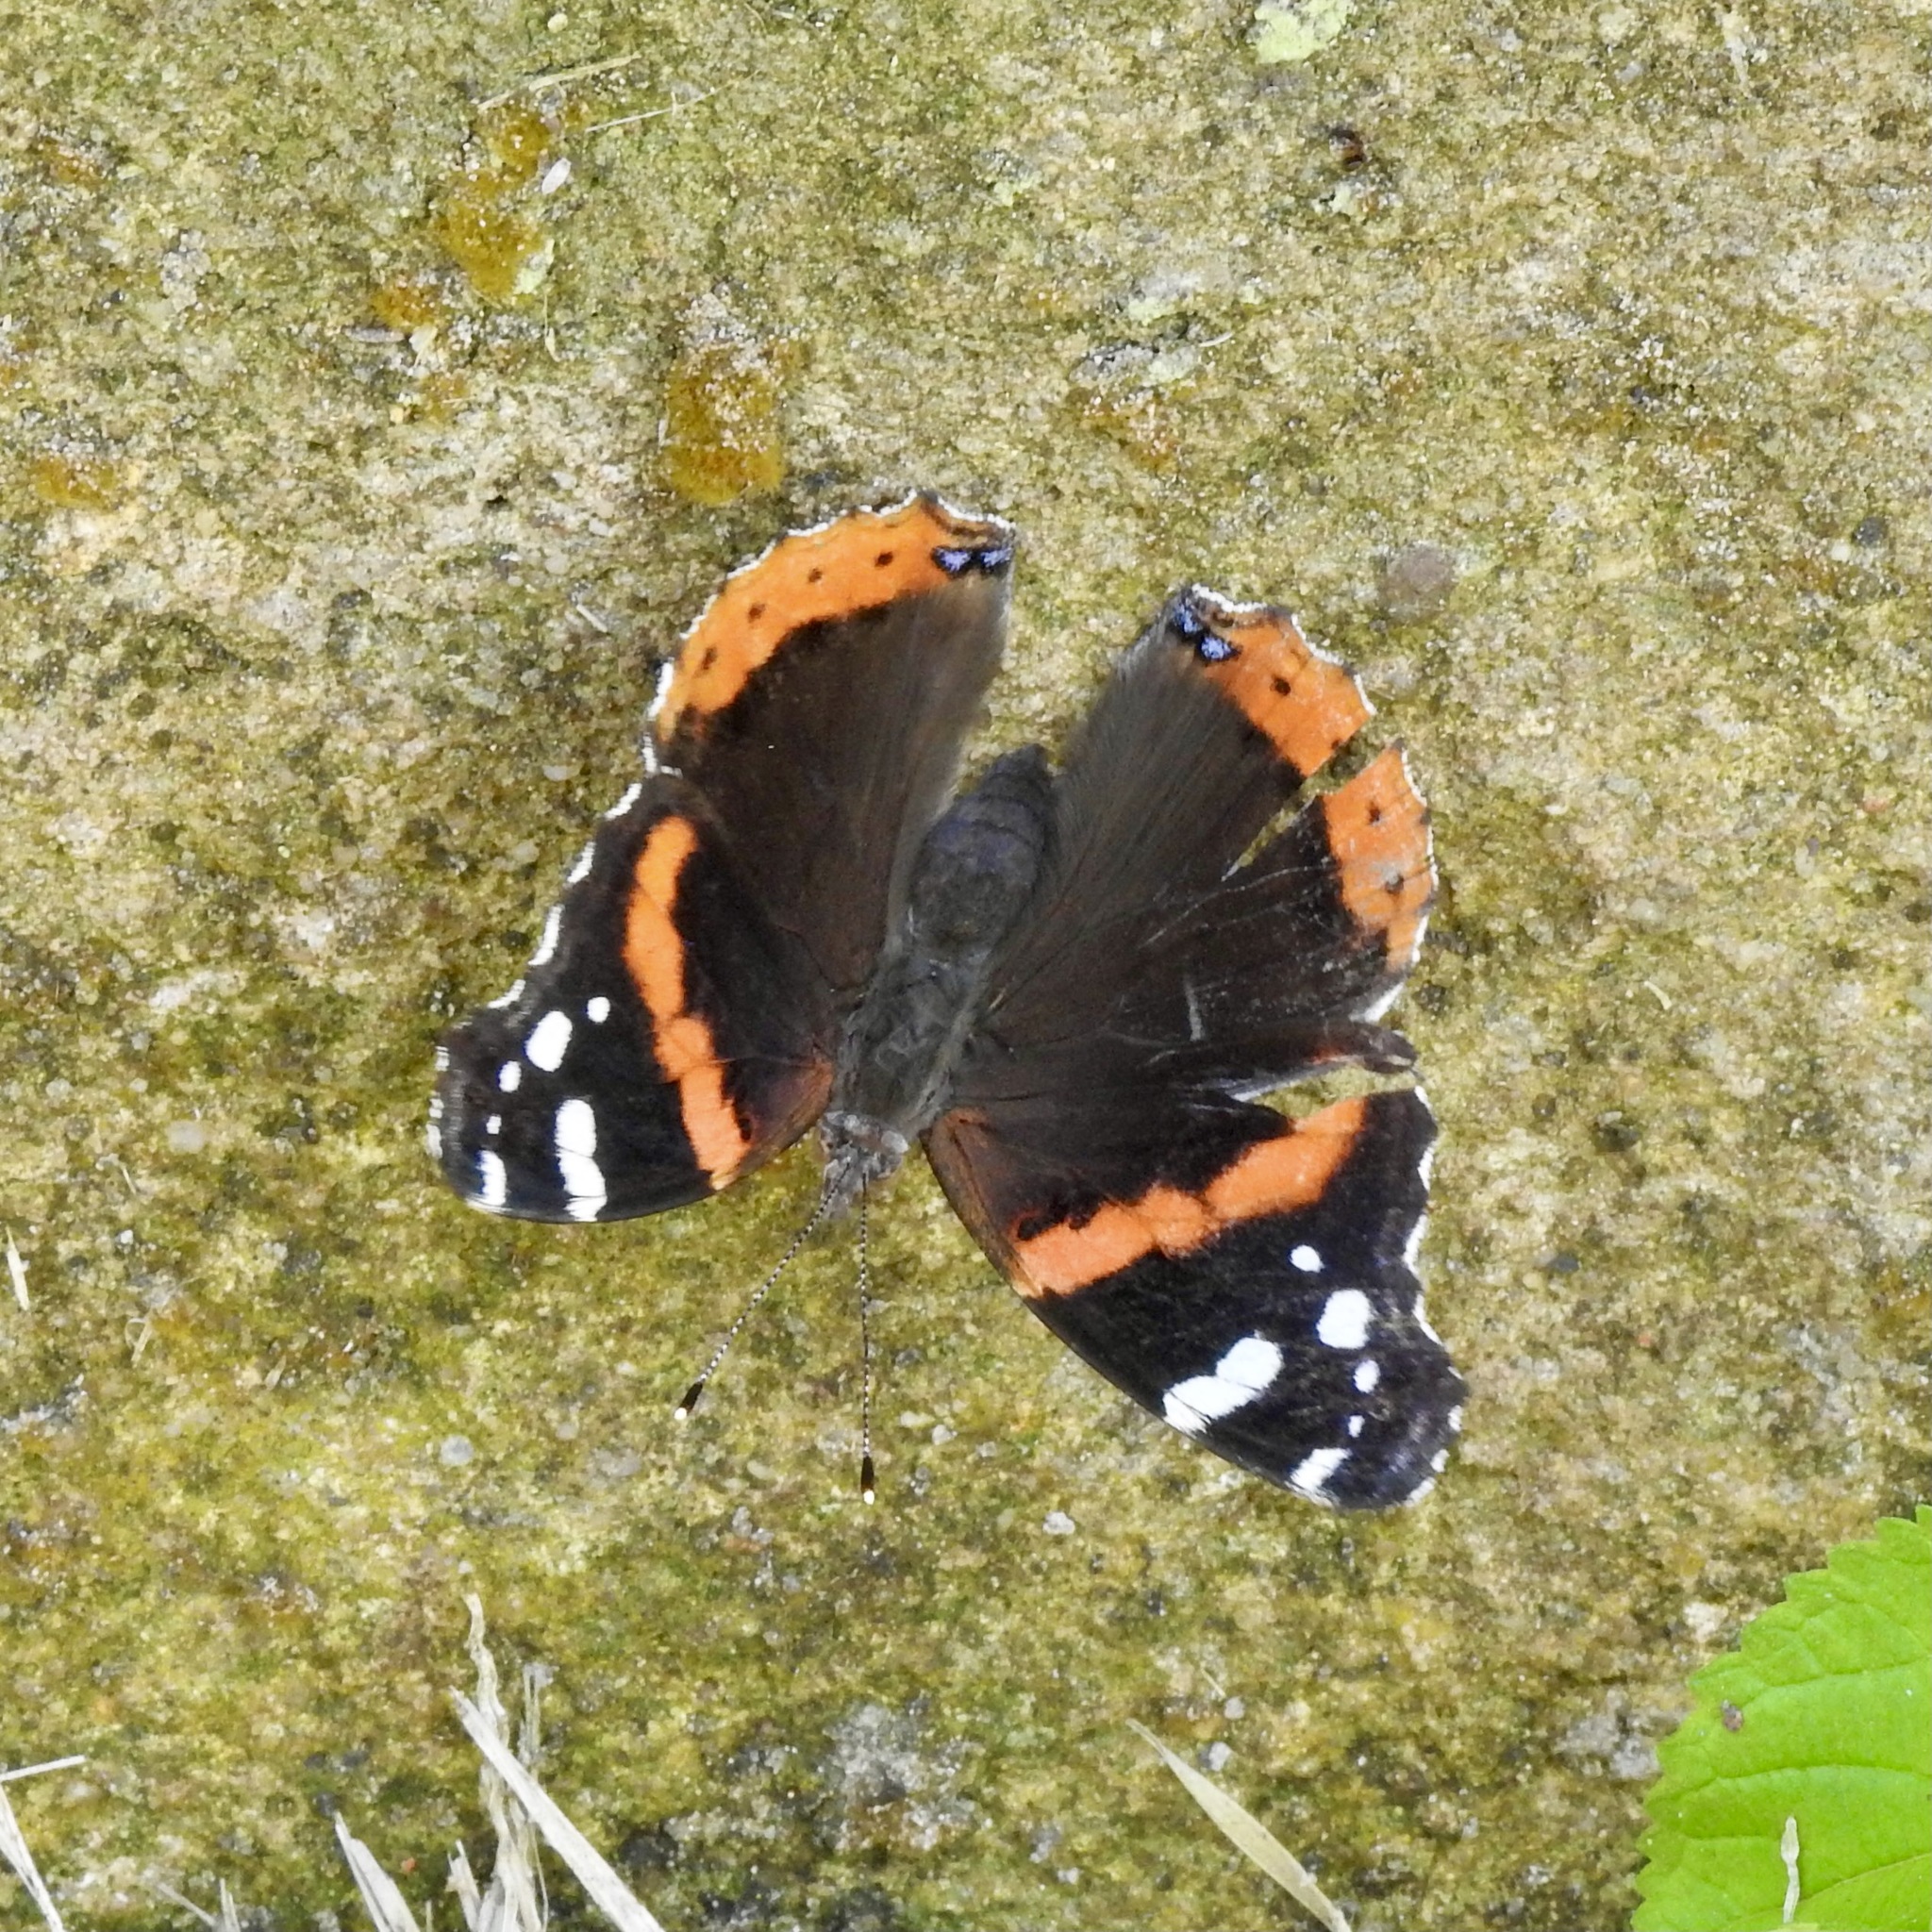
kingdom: Animalia
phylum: Arthropoda
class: Insecta
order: Lepidoptera
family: Nymphalidae
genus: Vanessa
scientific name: Vanessa atalanta
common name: Red admiral
